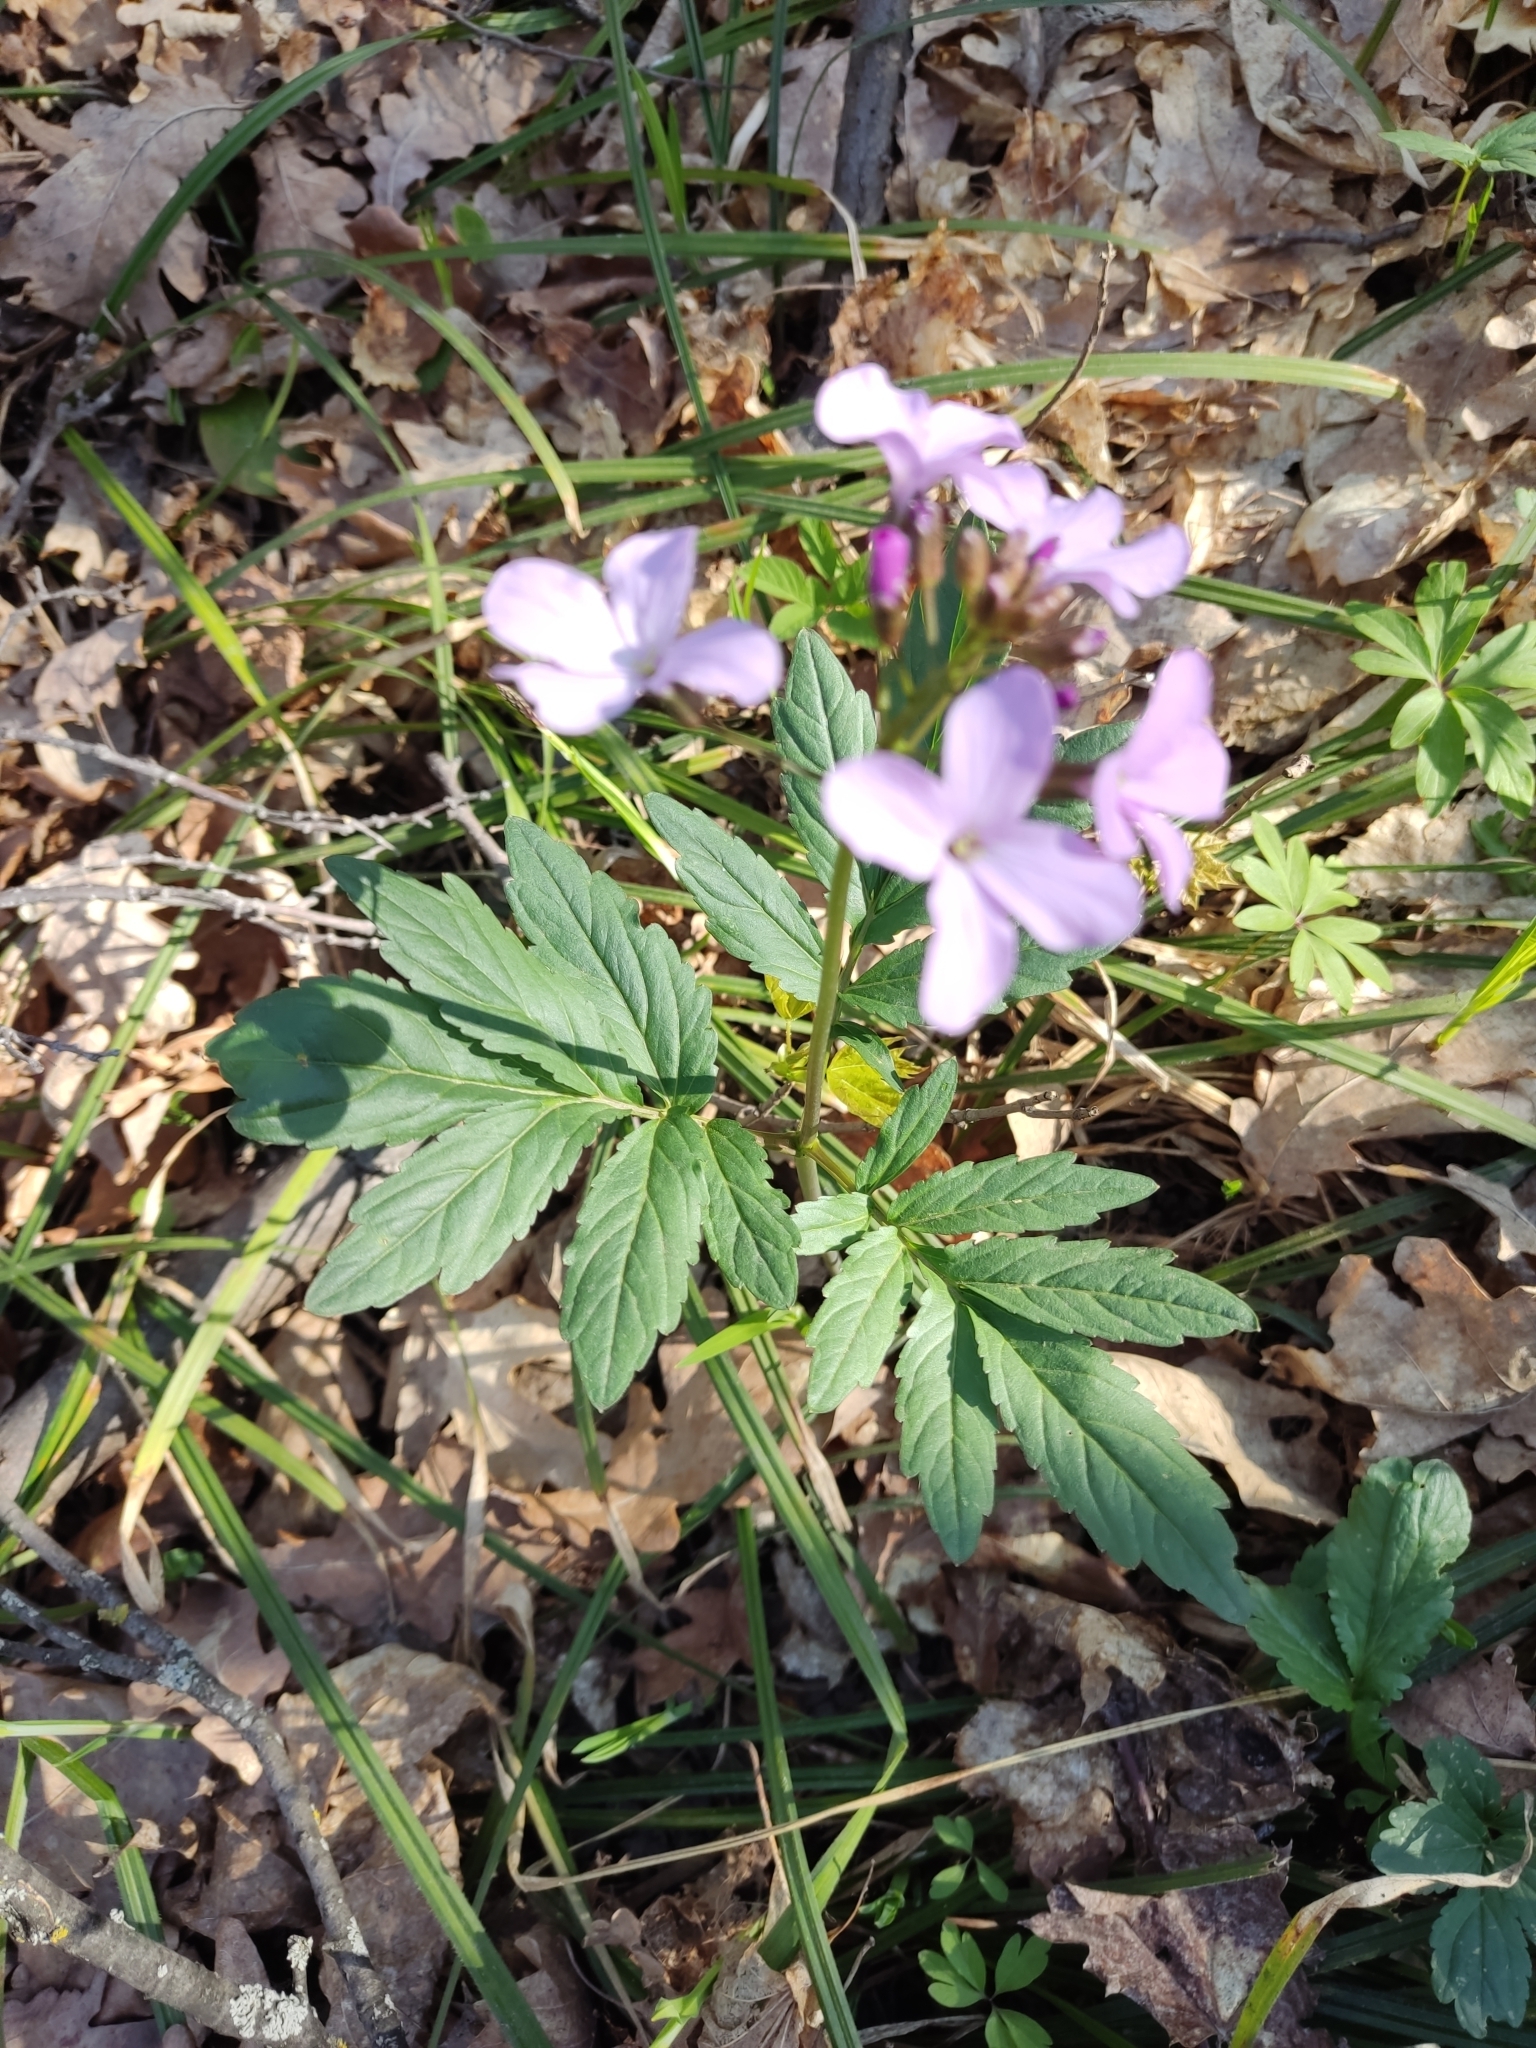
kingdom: Plantae
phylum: Tracheophyta
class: Magnoliopsida
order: Brassicales
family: Brassicaceae
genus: Cardamine
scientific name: Cardamine quinquefolia
